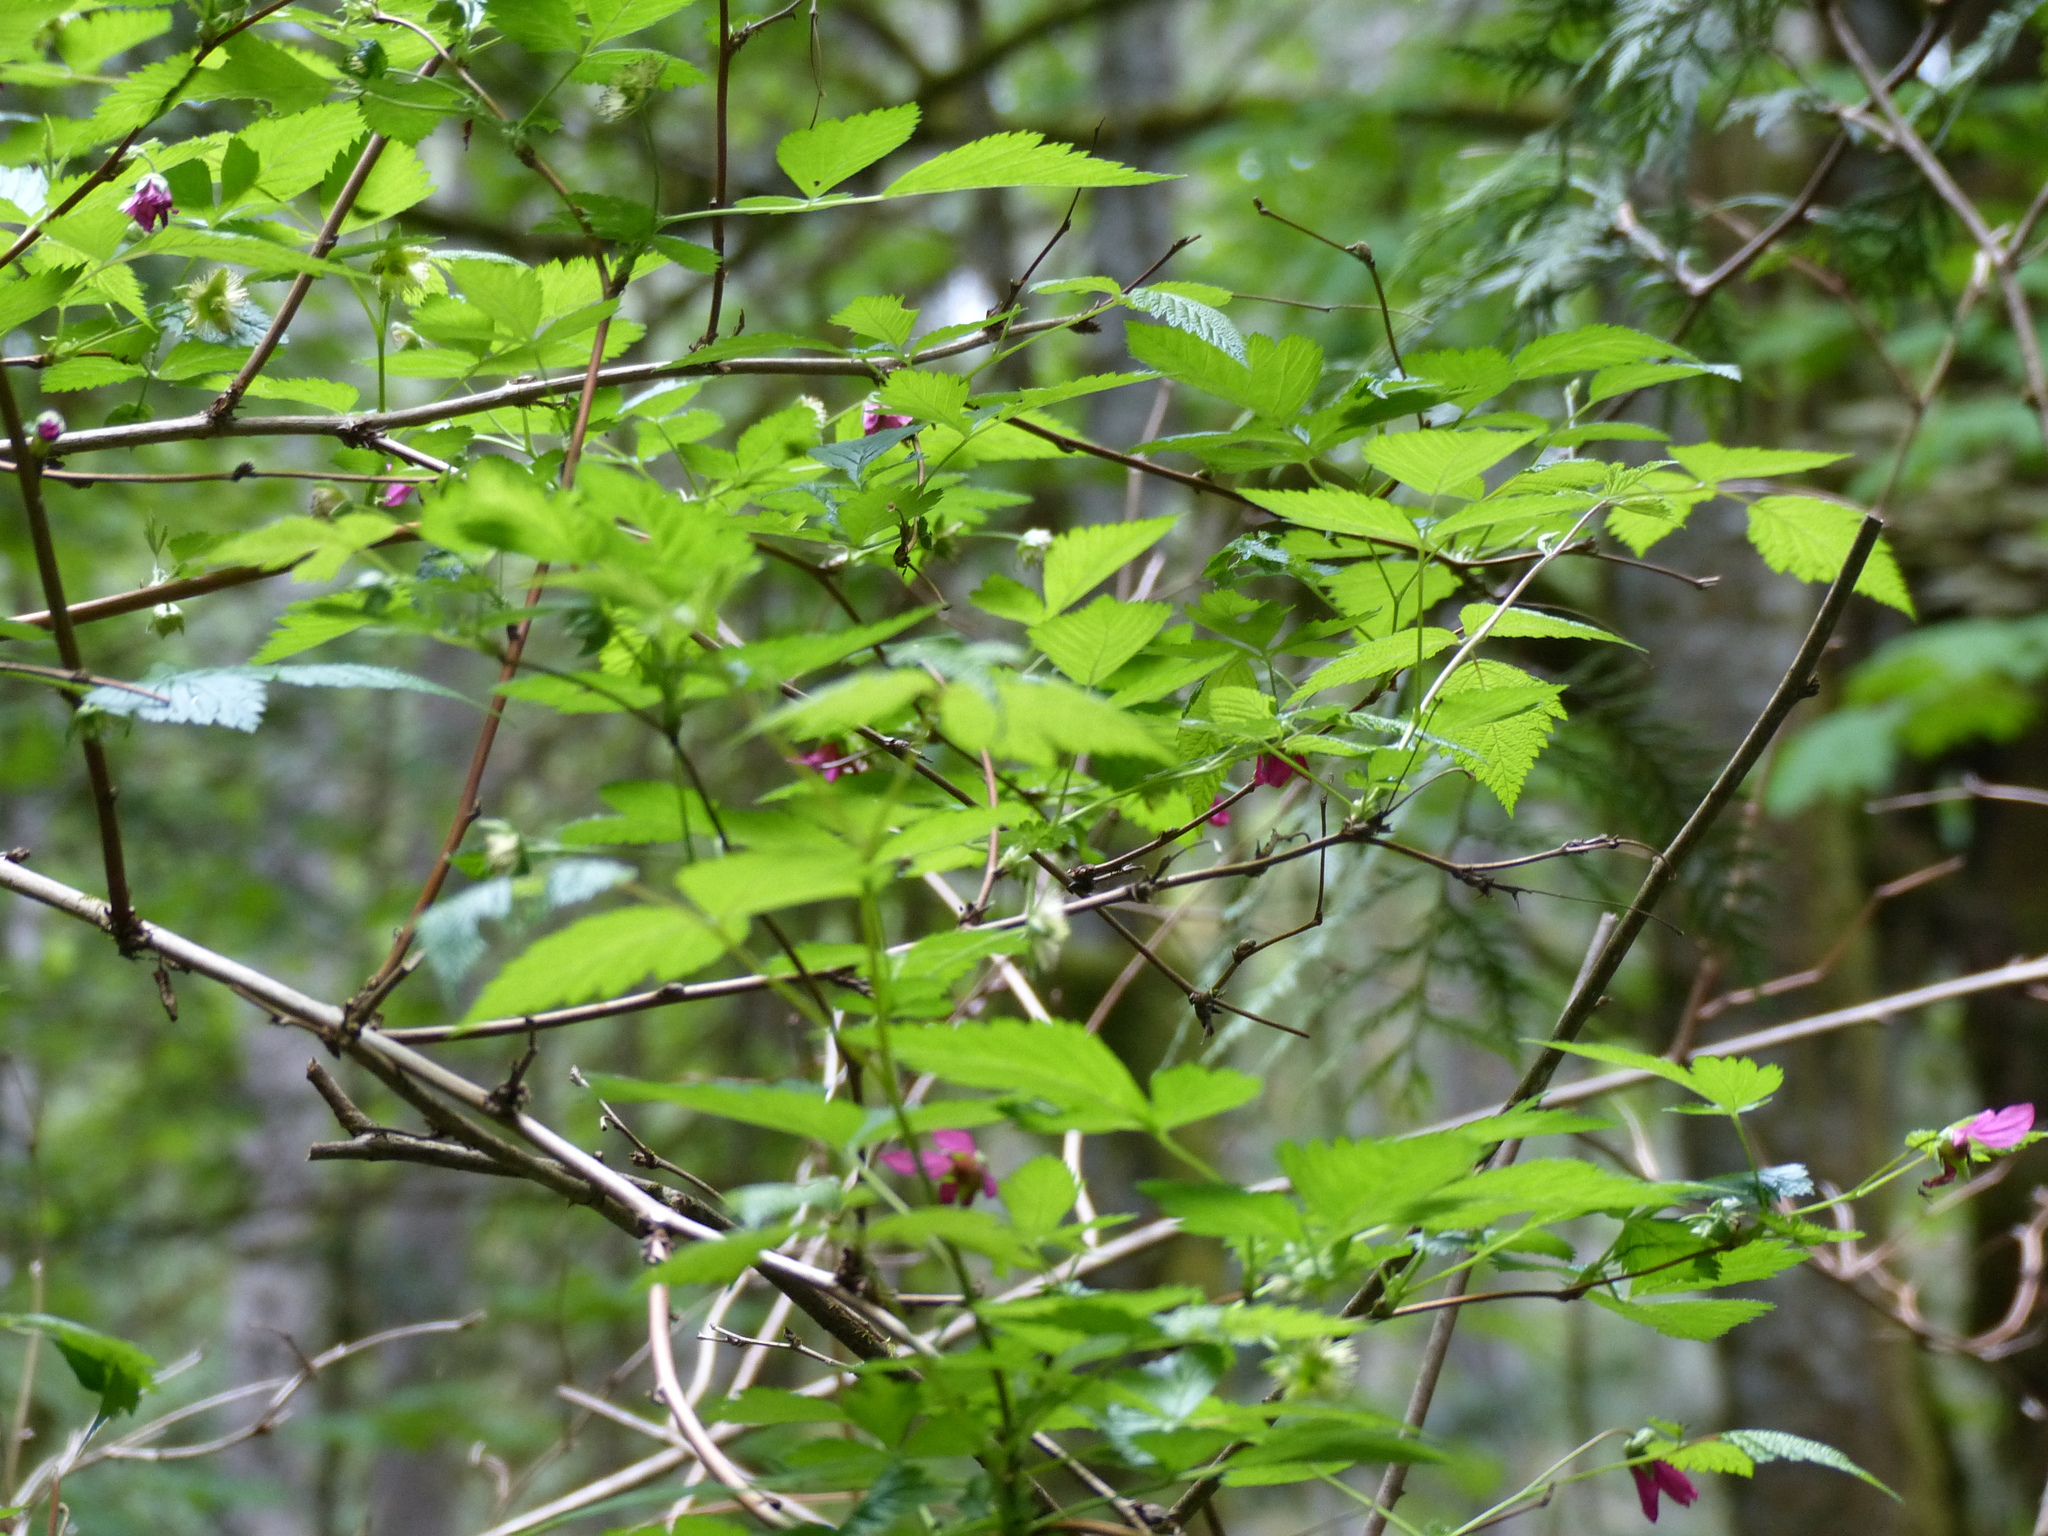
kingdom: Plantae
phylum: Tracheophyta
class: Magnoliopsida
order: Rosales
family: Rosaceae
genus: Rubus
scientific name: Rubus spectabilis
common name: Salmonberry
